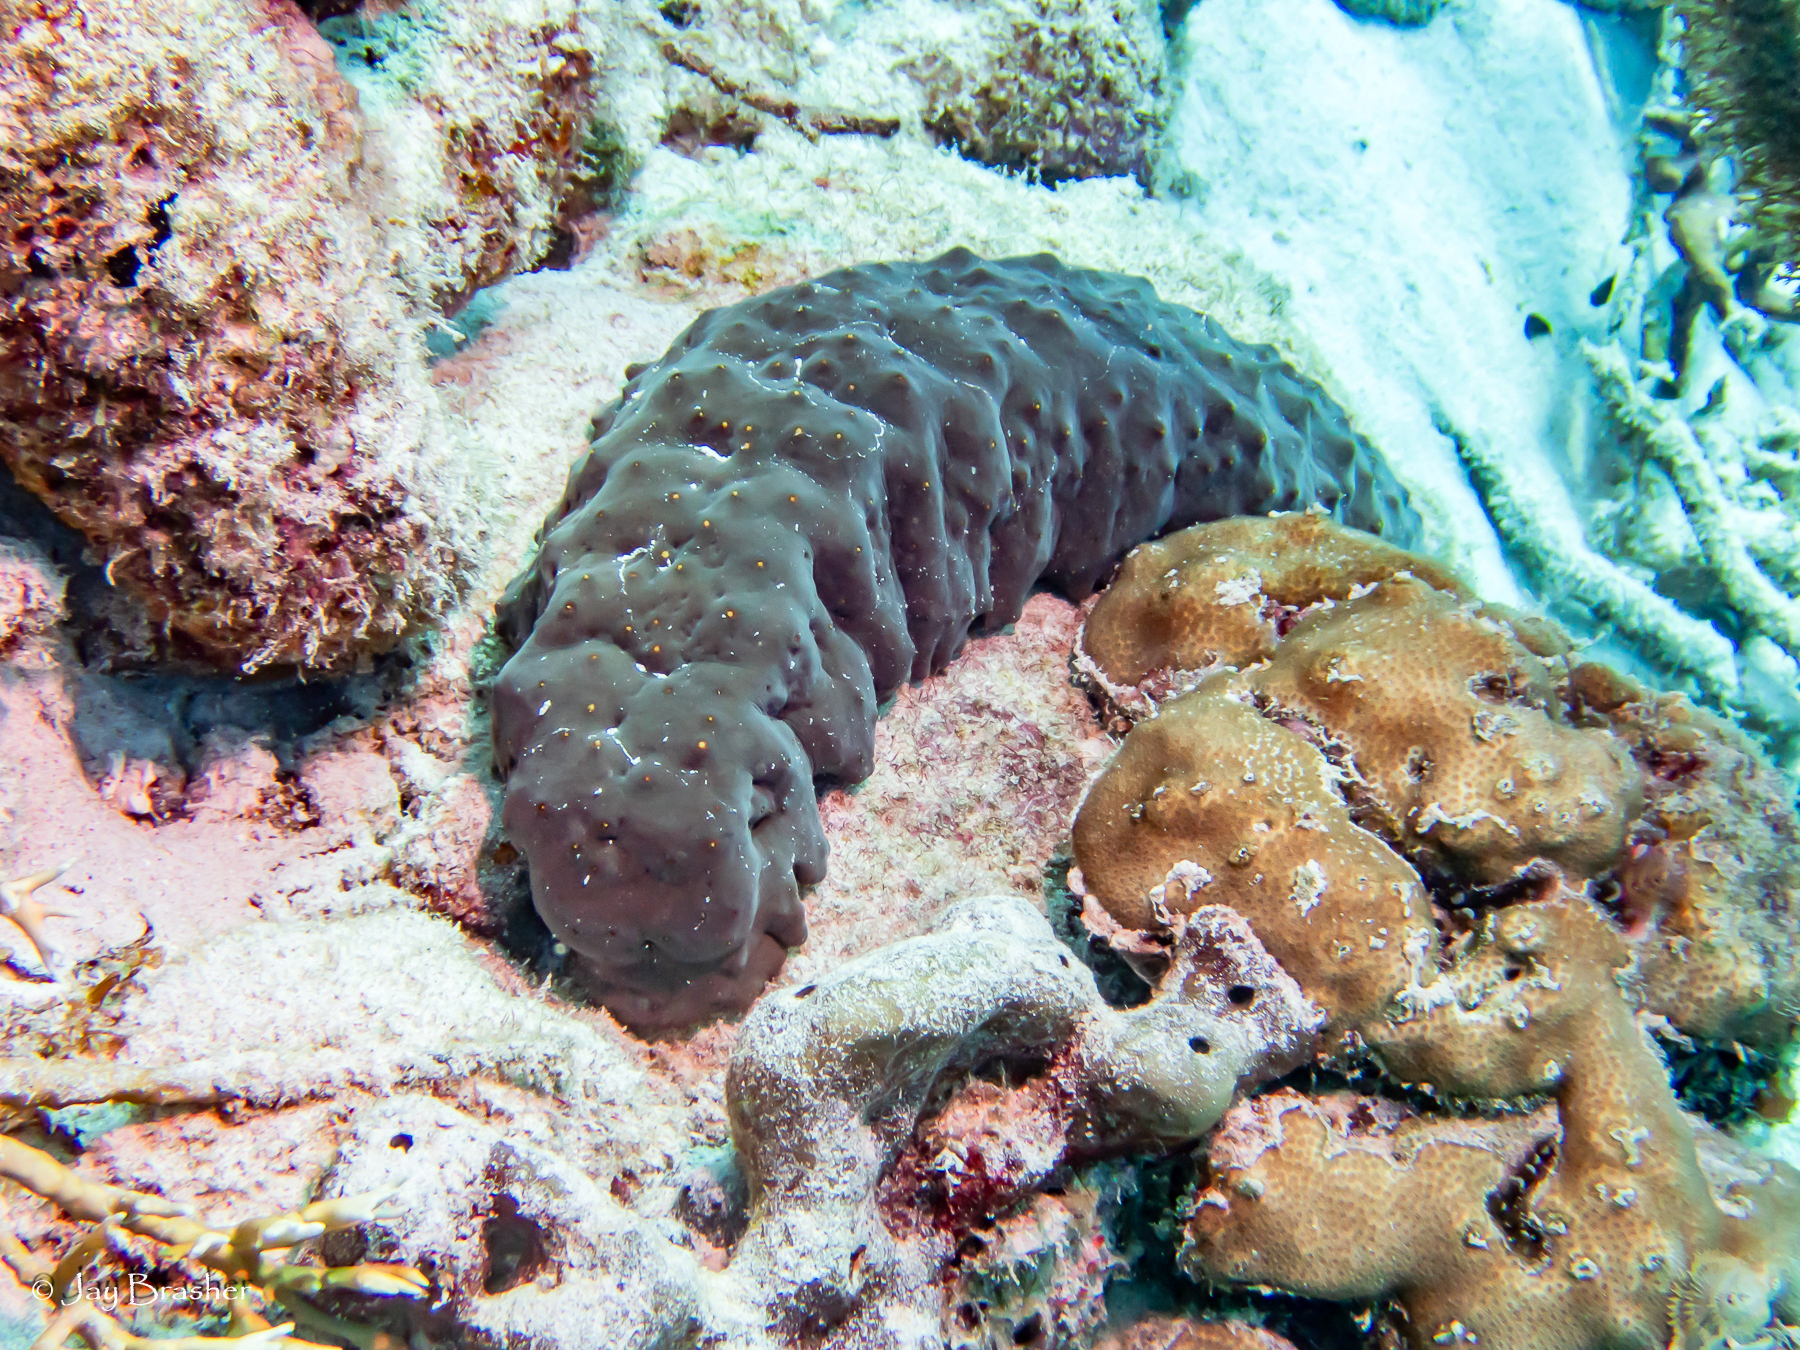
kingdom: Animalia
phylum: Echinodermata
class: Holothuroidea
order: Synallactida
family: Stichopodidae
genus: Isostichopus
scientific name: Isostichopus badionotus
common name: Chocolate chip cucumber
